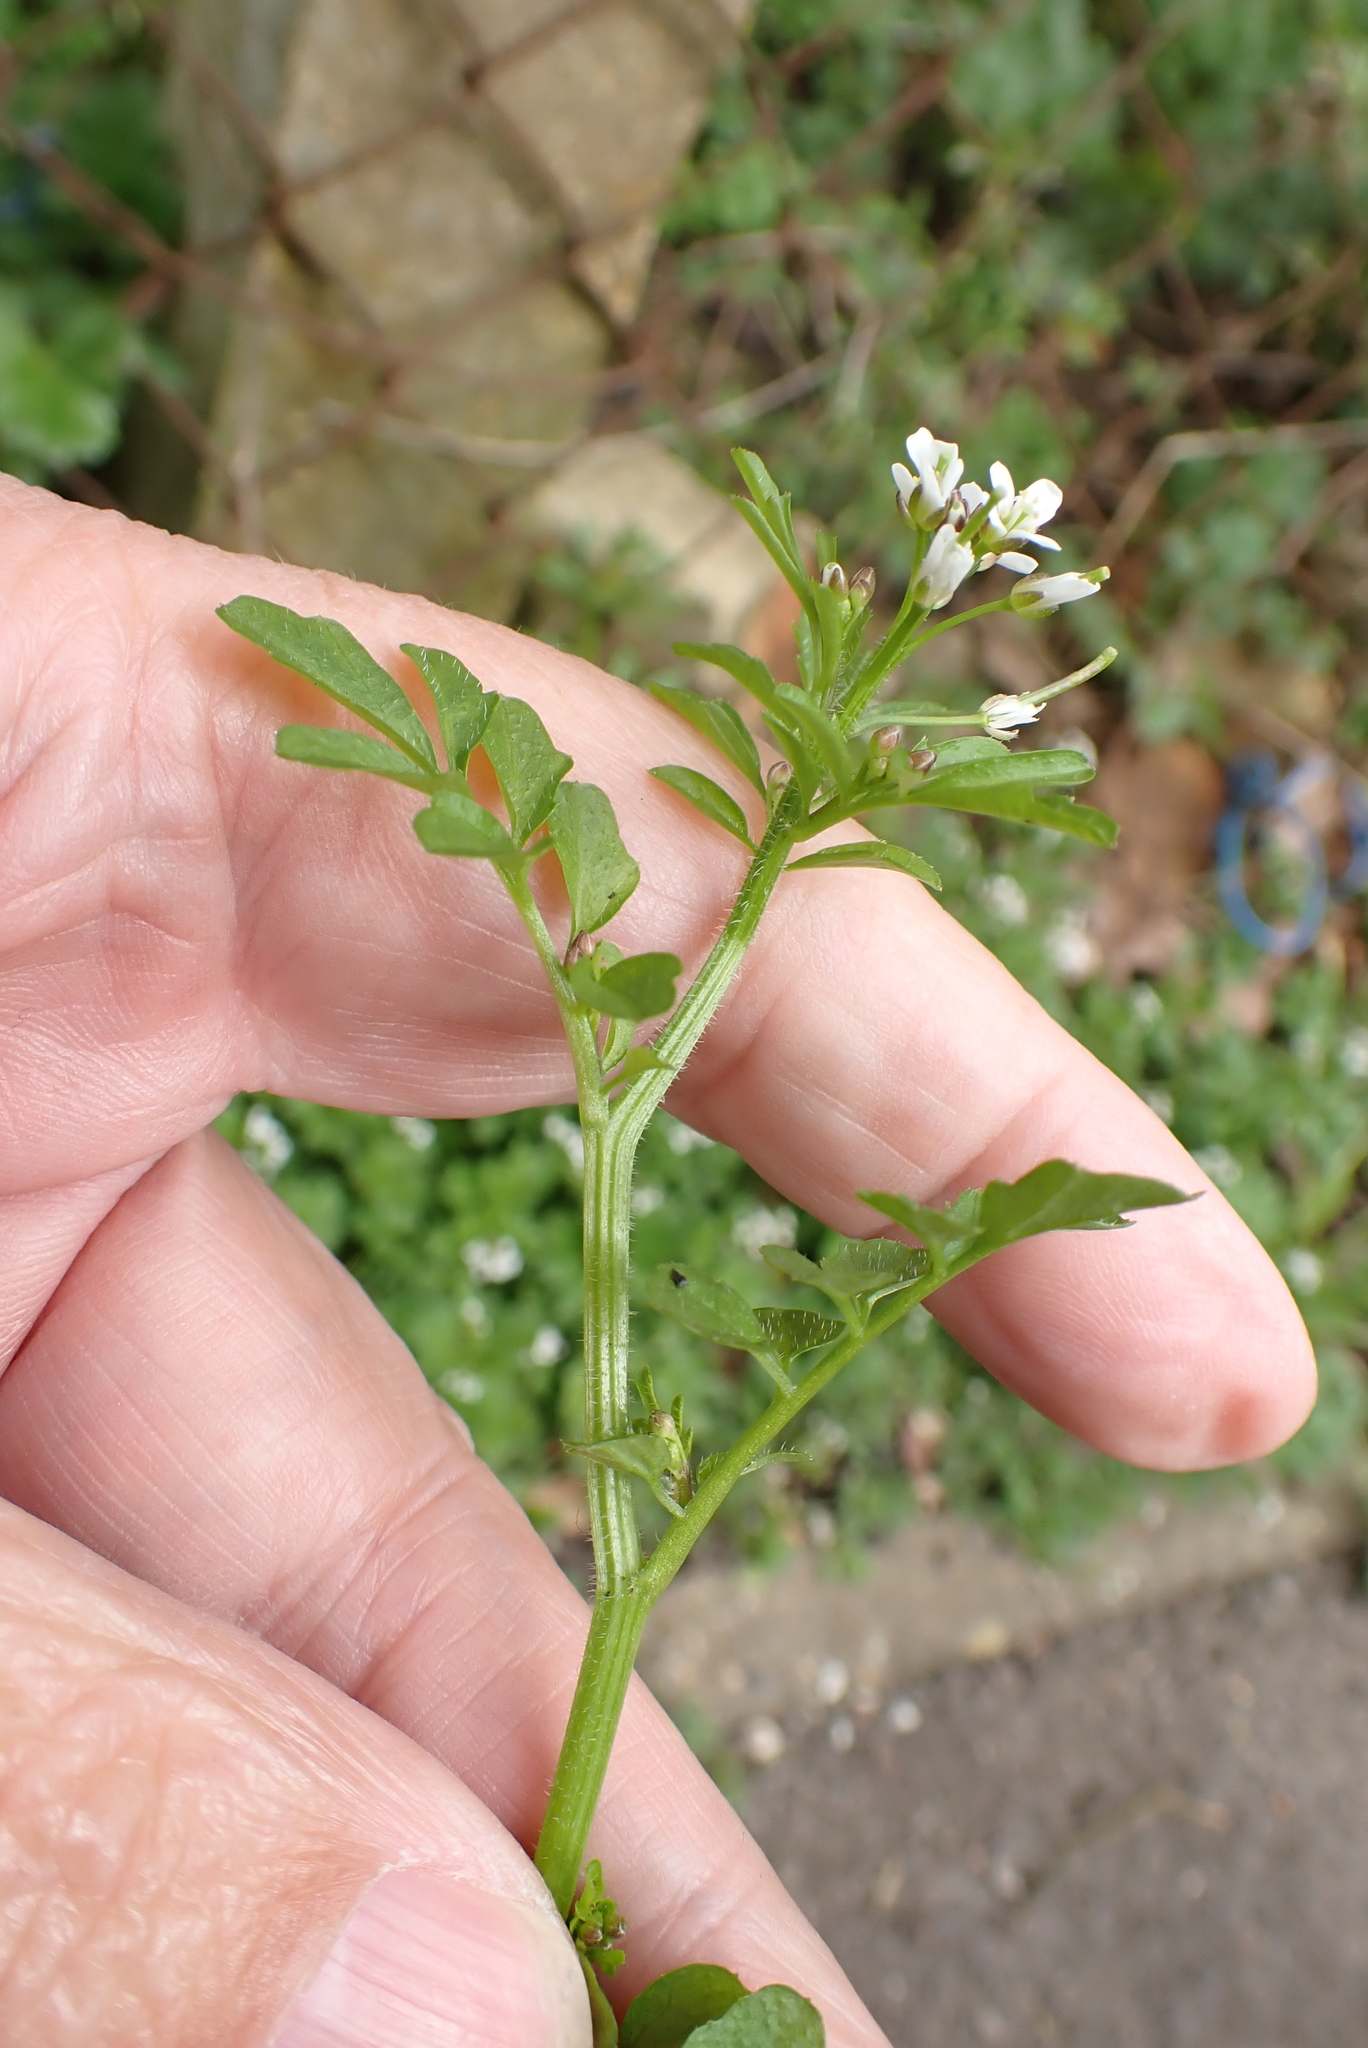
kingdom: Plantae
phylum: Tracheophyta
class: Magnoliopsida
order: Brassicales
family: Brassicaceae
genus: Cardamine
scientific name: Cardamine flexuosa
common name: Woodland bittercress
